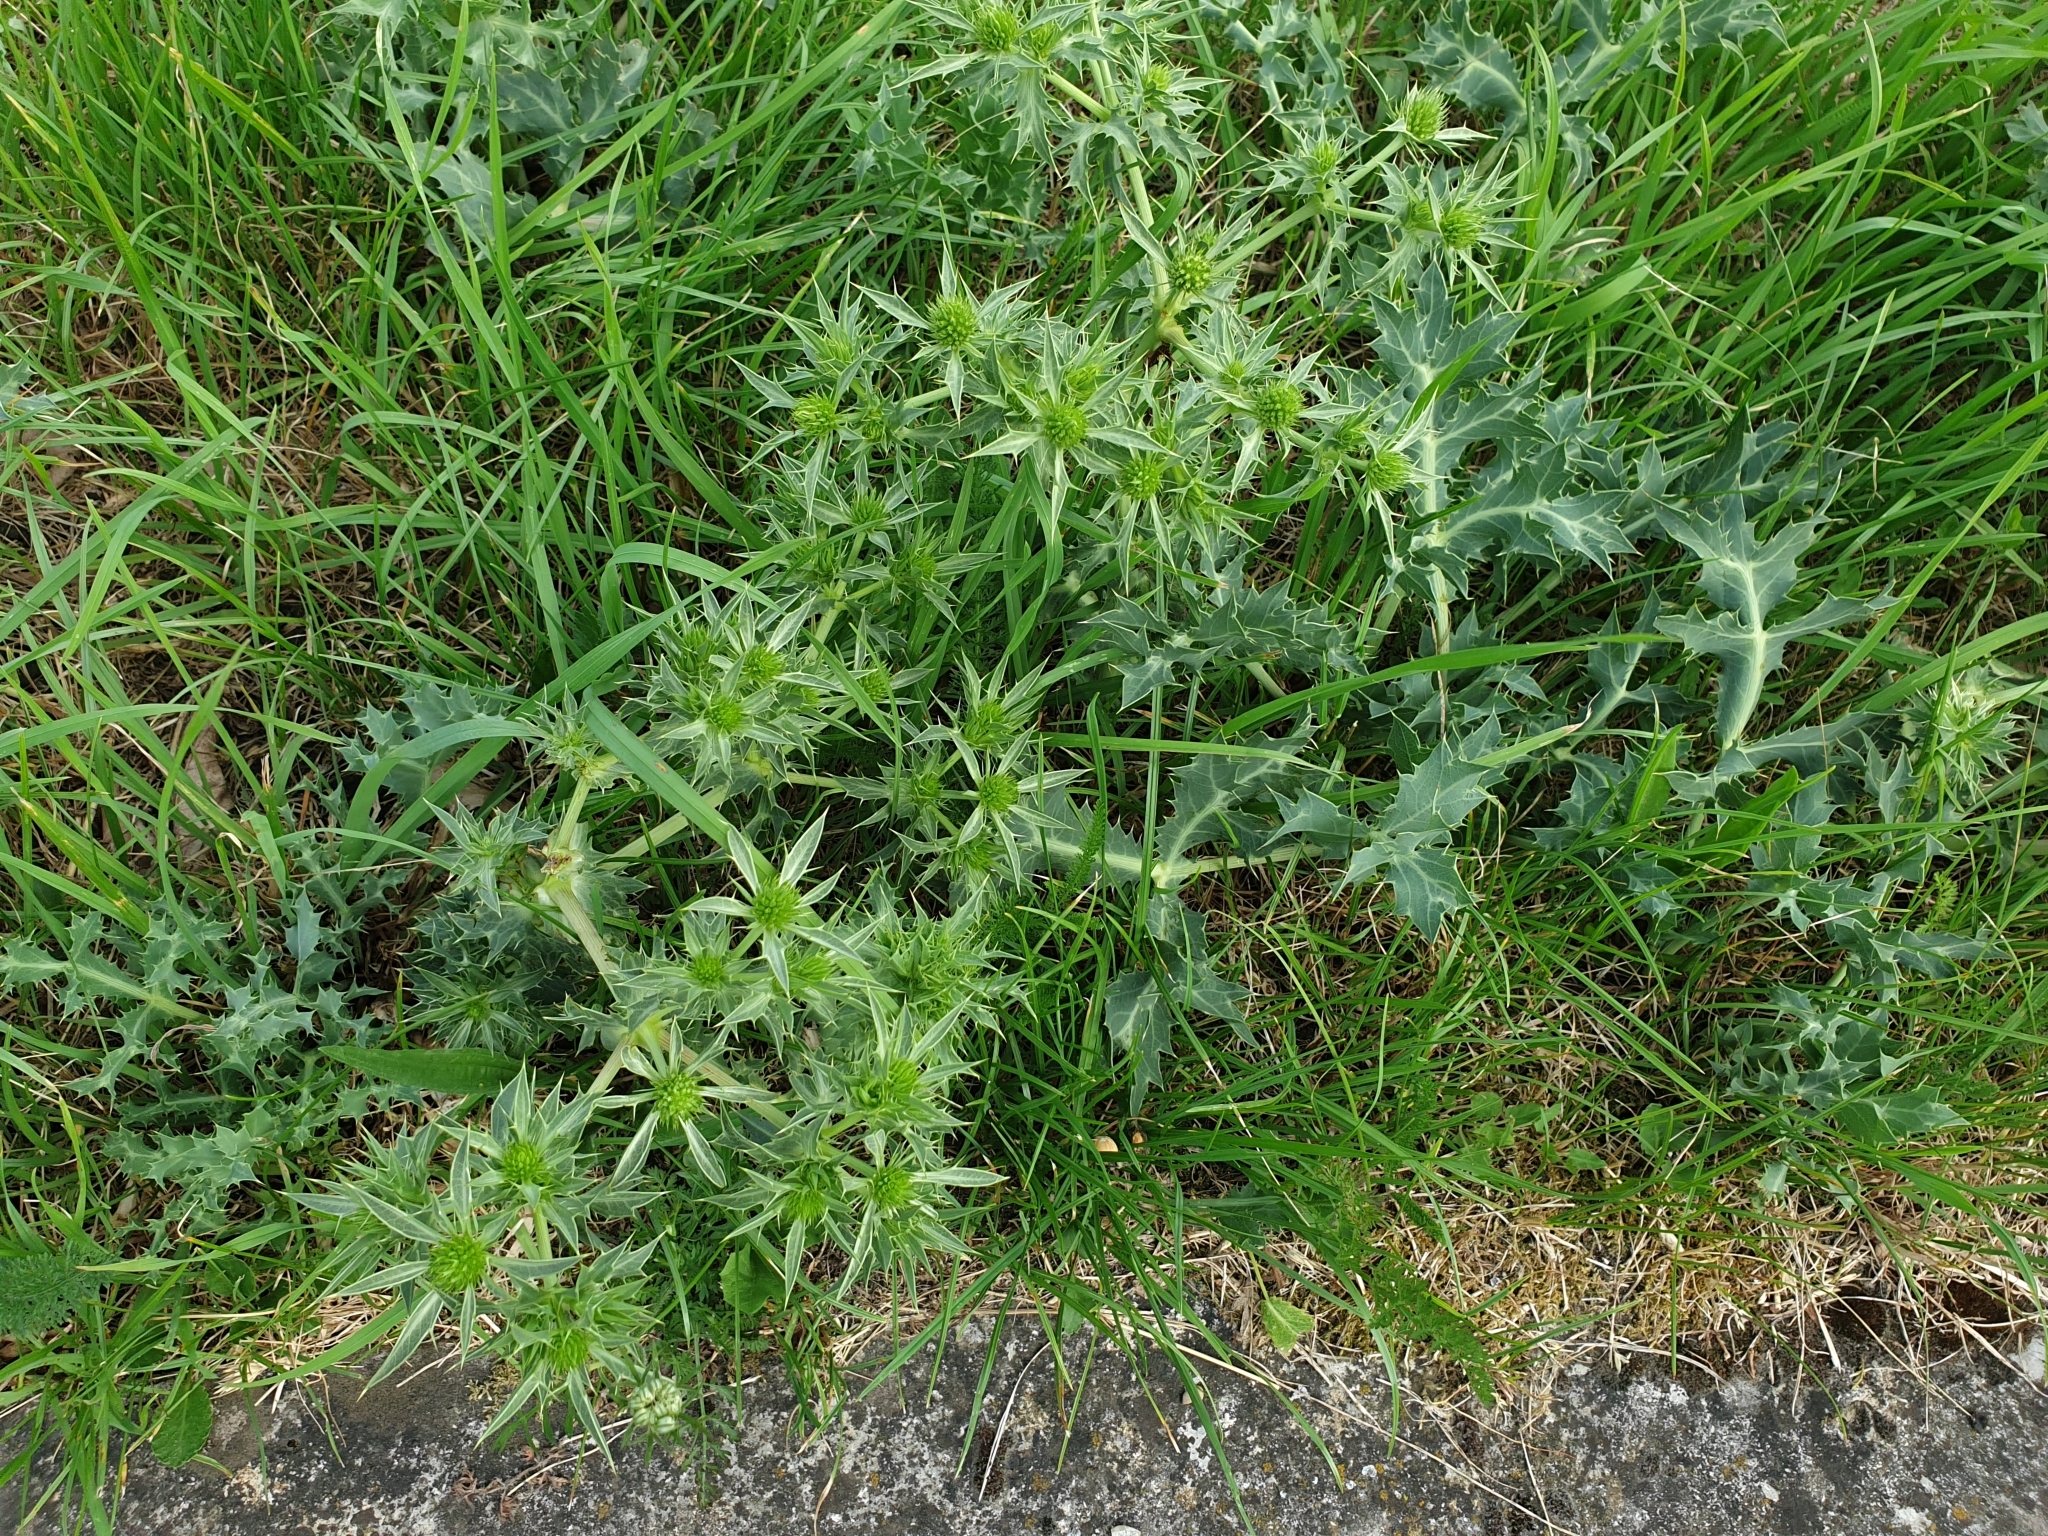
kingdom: Plantae
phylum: Tracheophyta
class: Magnoliopsida
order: Apiales
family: Apiaceae
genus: Eryngium
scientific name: Eryngium campestre
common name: Field eryngo
